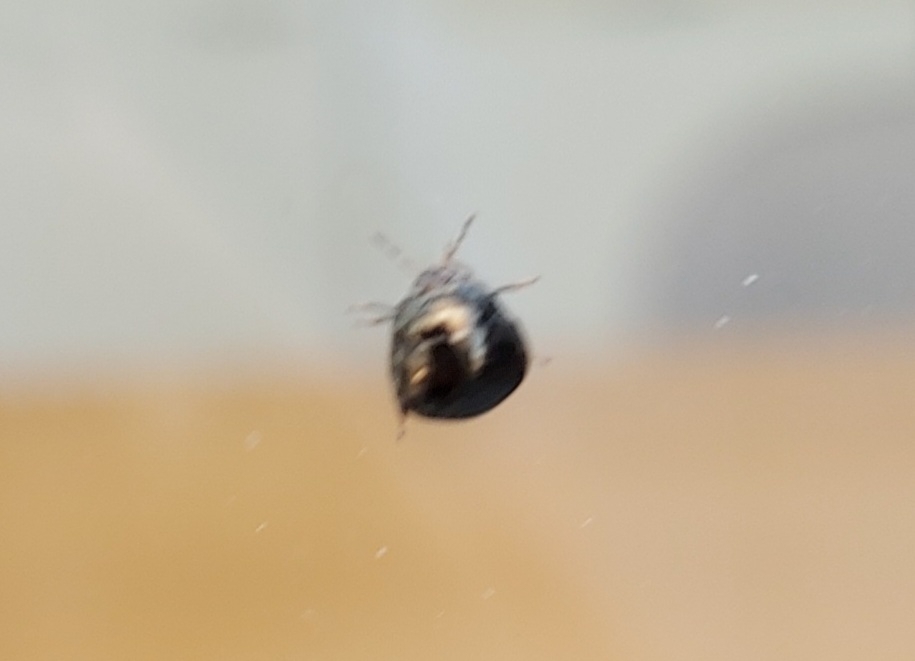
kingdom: Animalia
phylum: Arthropoda
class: Insecta
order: Hemiptera
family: Plataspidae
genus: Coptosoma
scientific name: Coptosoma scutellatum
